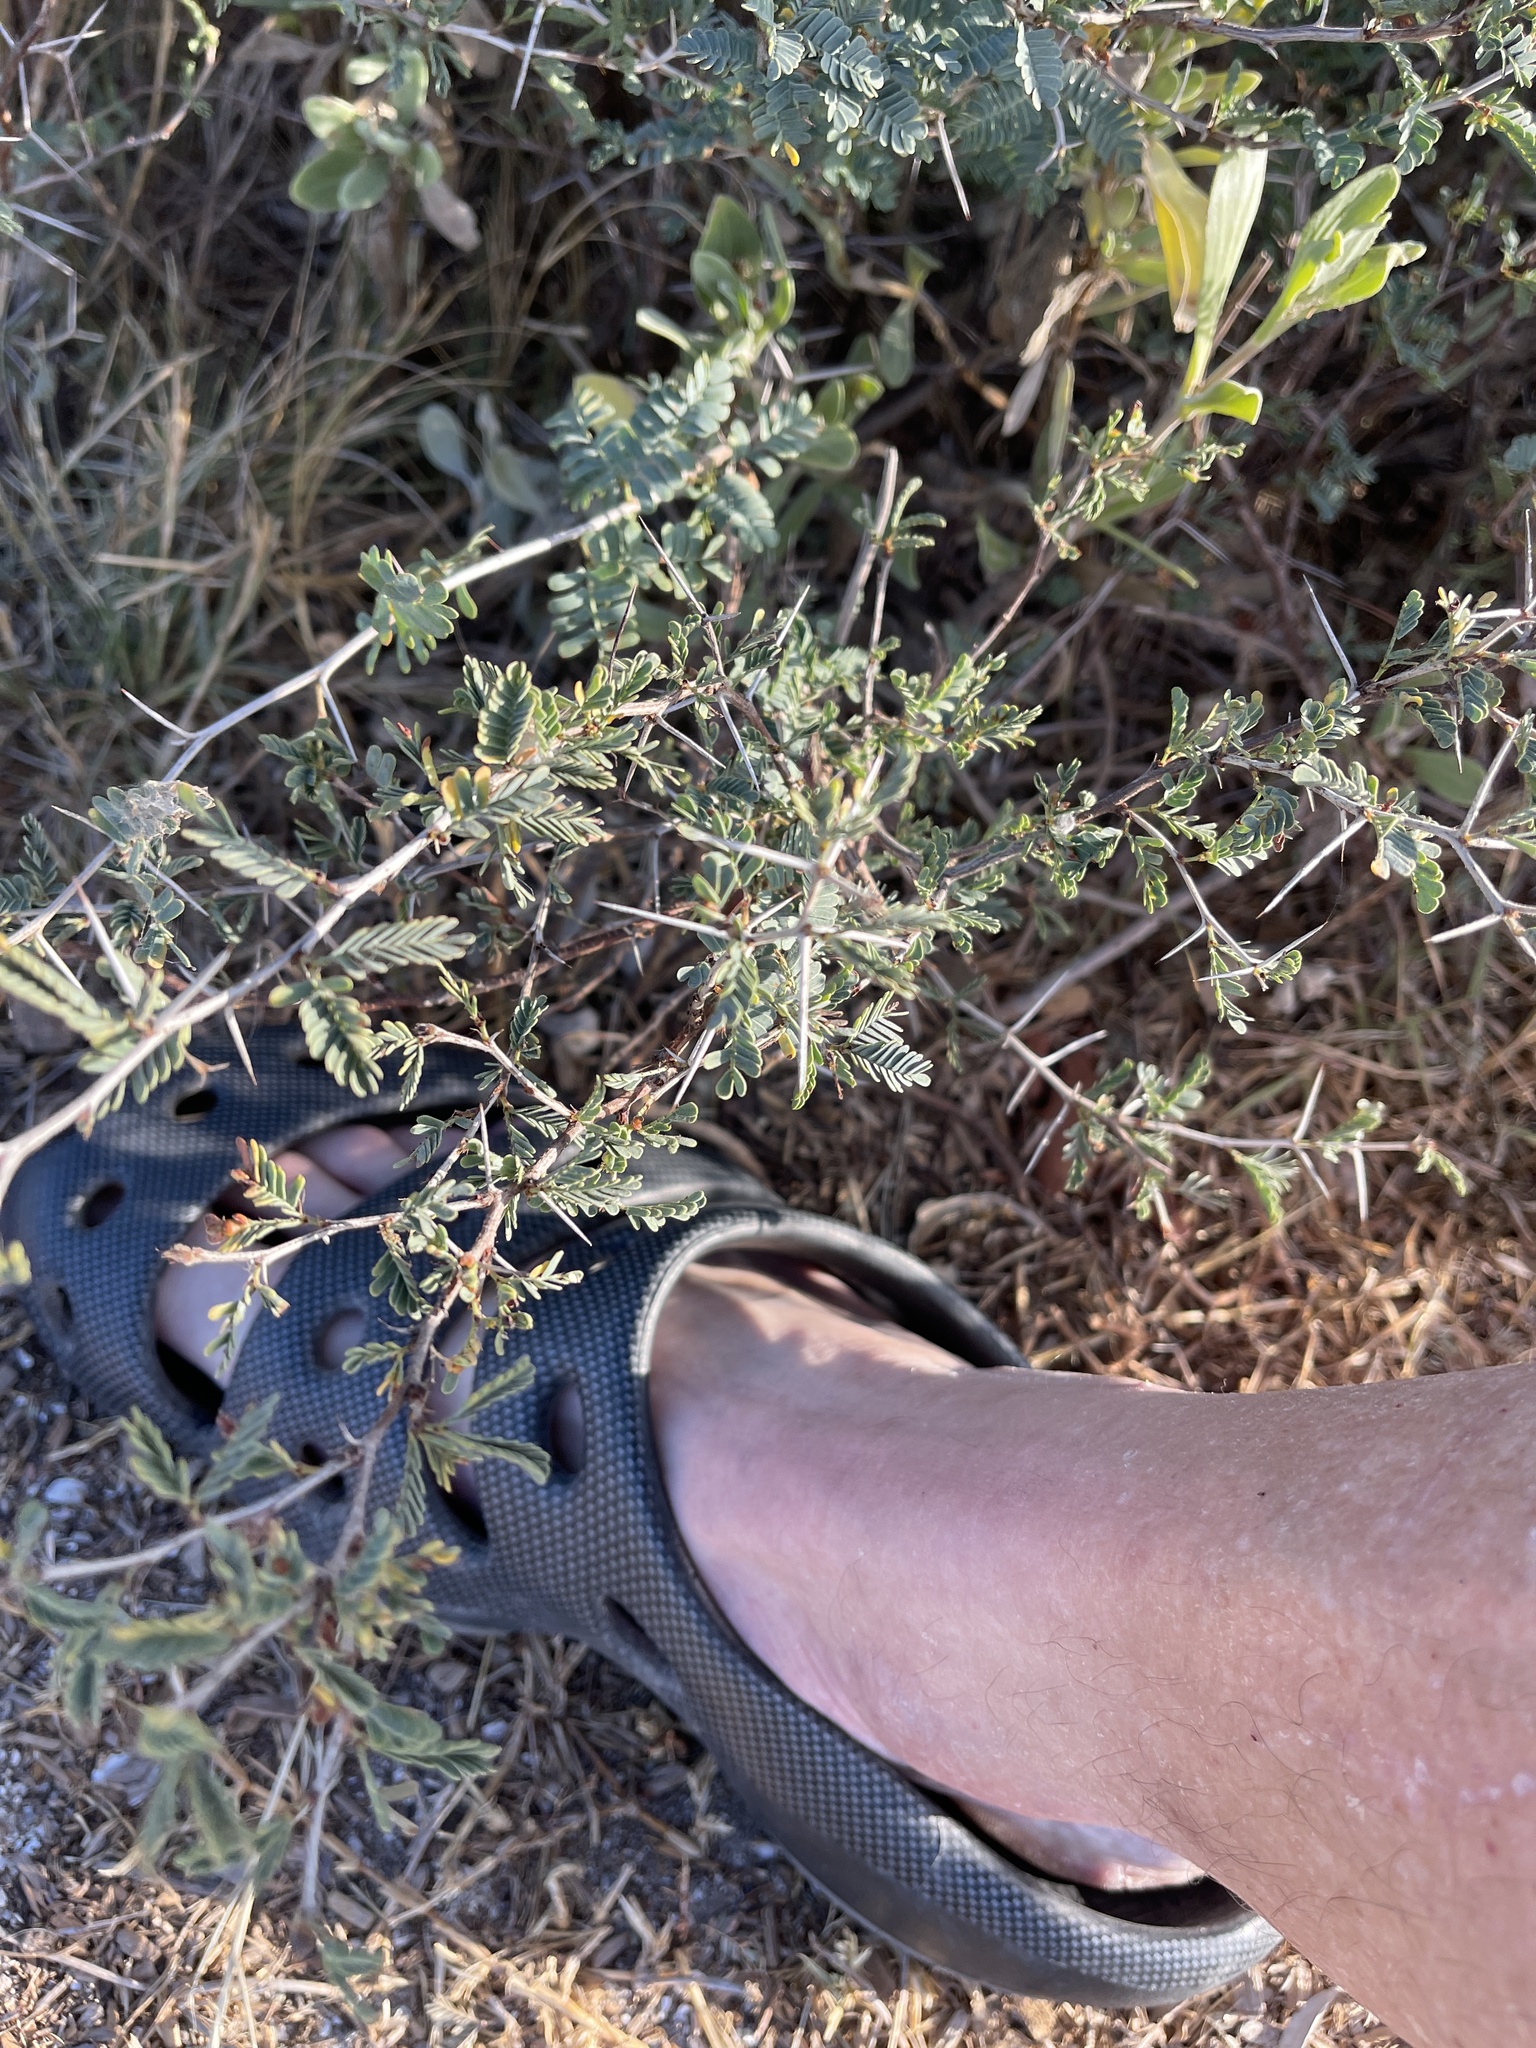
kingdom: Plantae
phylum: Tracheophyta
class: Magnoliopsida
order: Fabales
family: Fabaceae
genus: Prosopis
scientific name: Prosopis cinerascens
